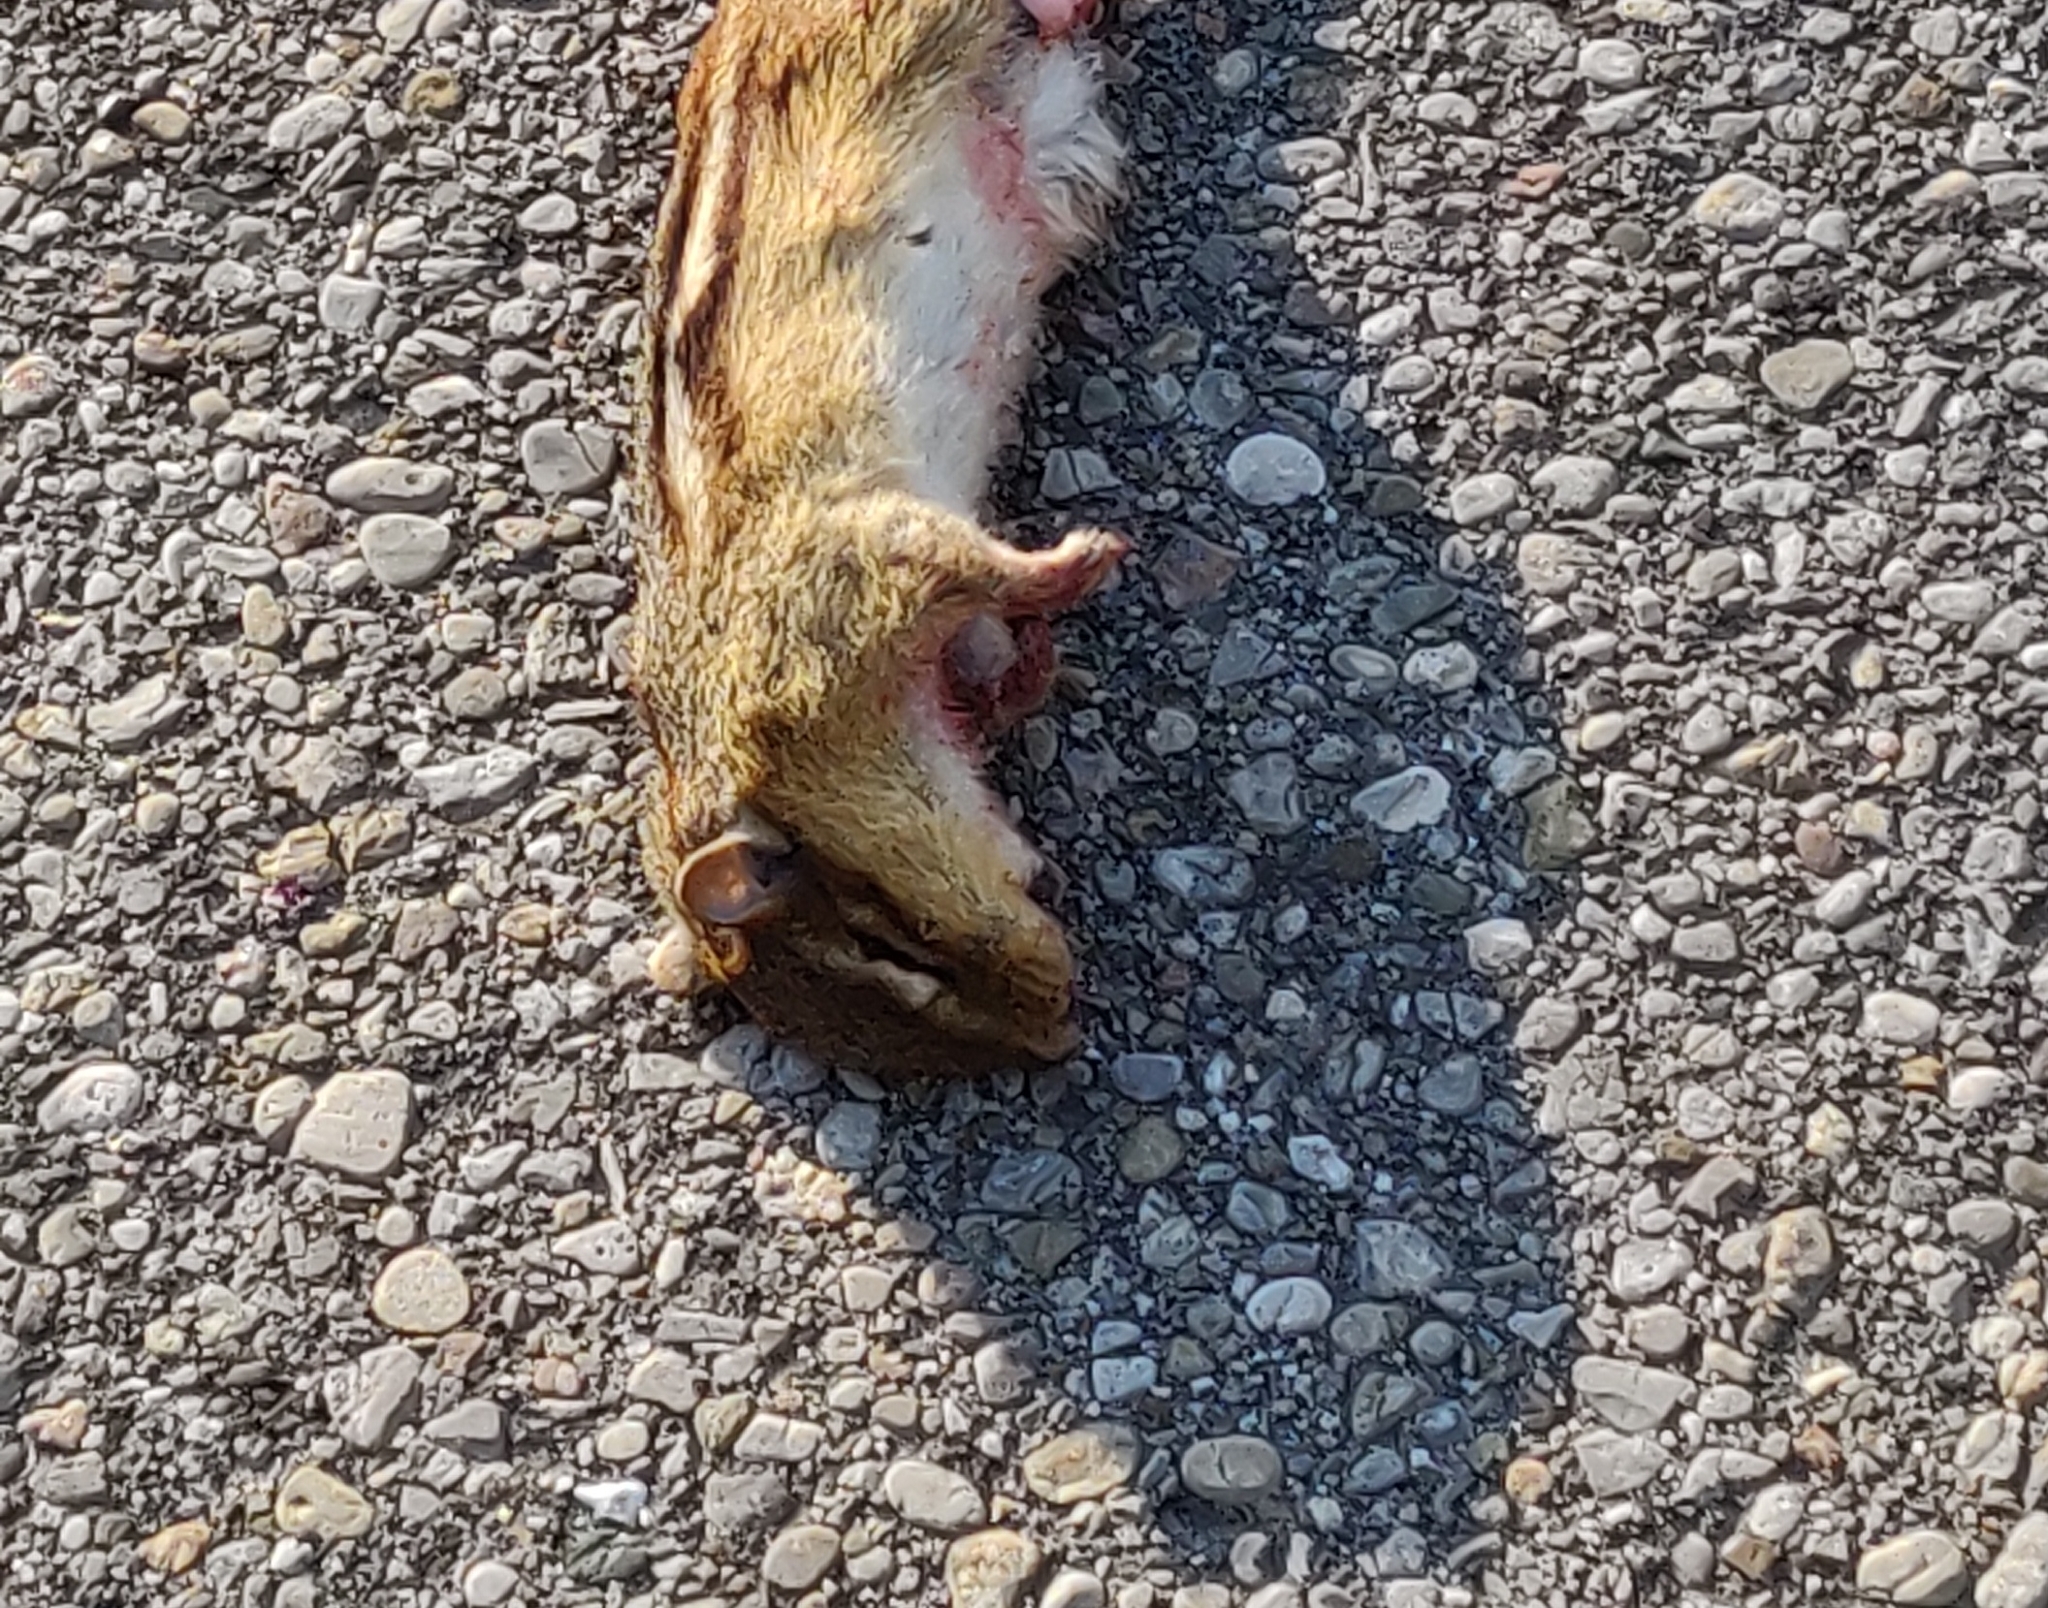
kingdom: Animalia
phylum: Chordata
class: Mammalia
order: Rodentia
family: Sciuridae
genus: Tamias
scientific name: Tamias striatus
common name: Eastern chipmunk
